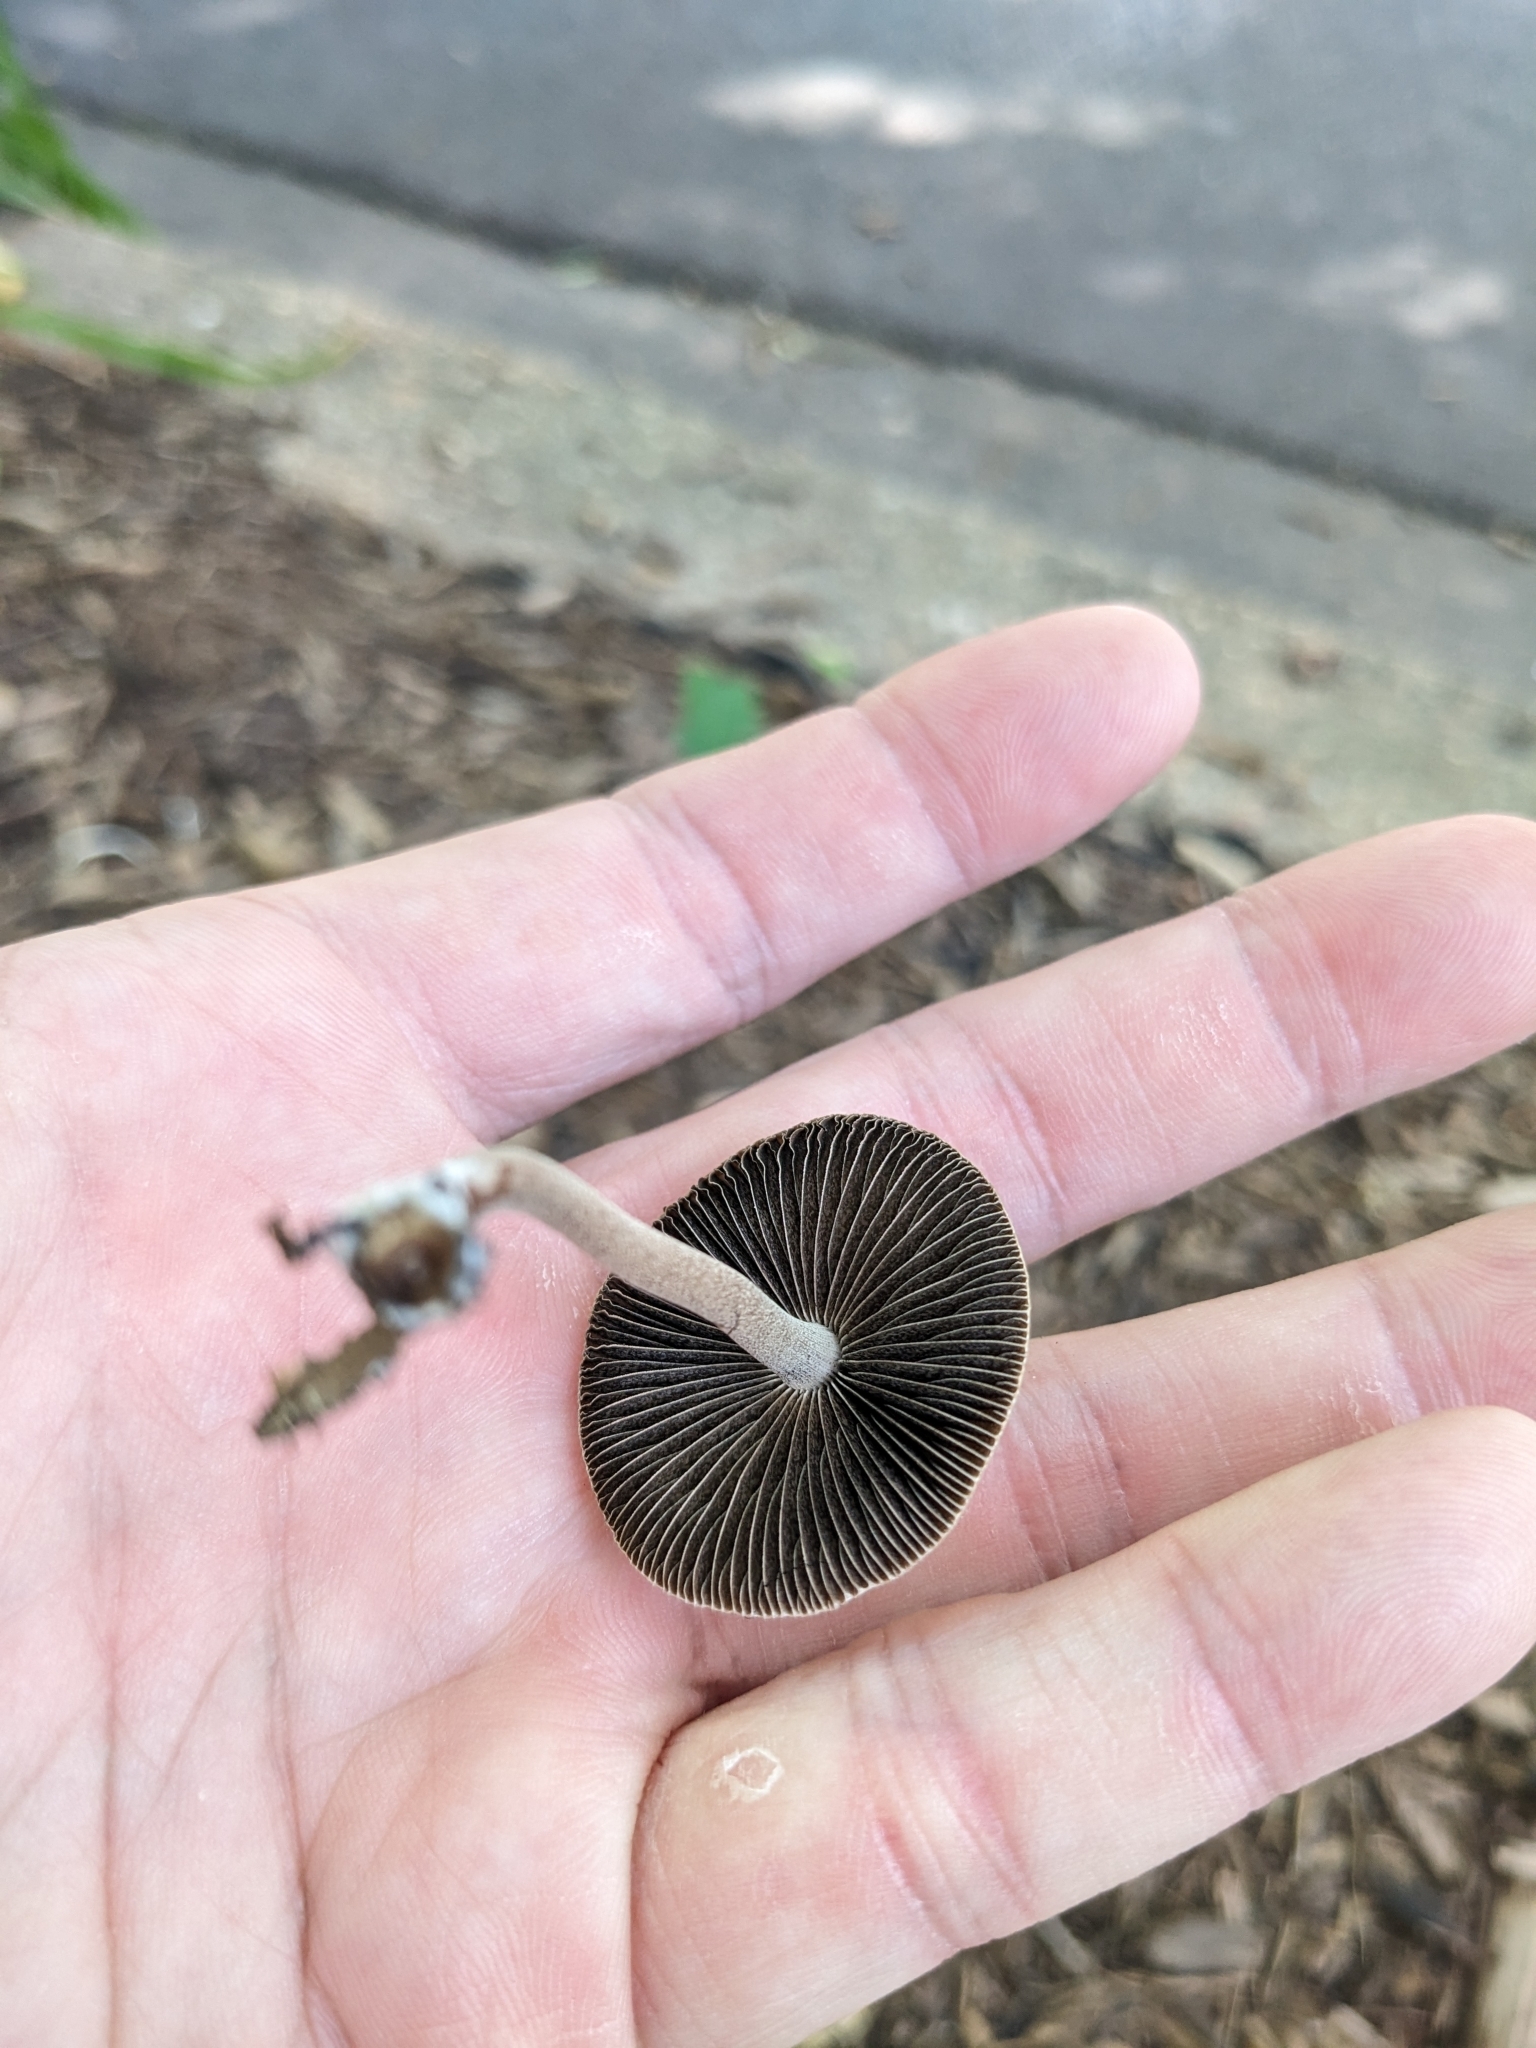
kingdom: Fungi
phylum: Basidiomycota
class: Agaricomycetes
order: Agaricales
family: Bolbitiaceae
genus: Panaeolus
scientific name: Panaeolus cinctulus
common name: Banded mottlegill
